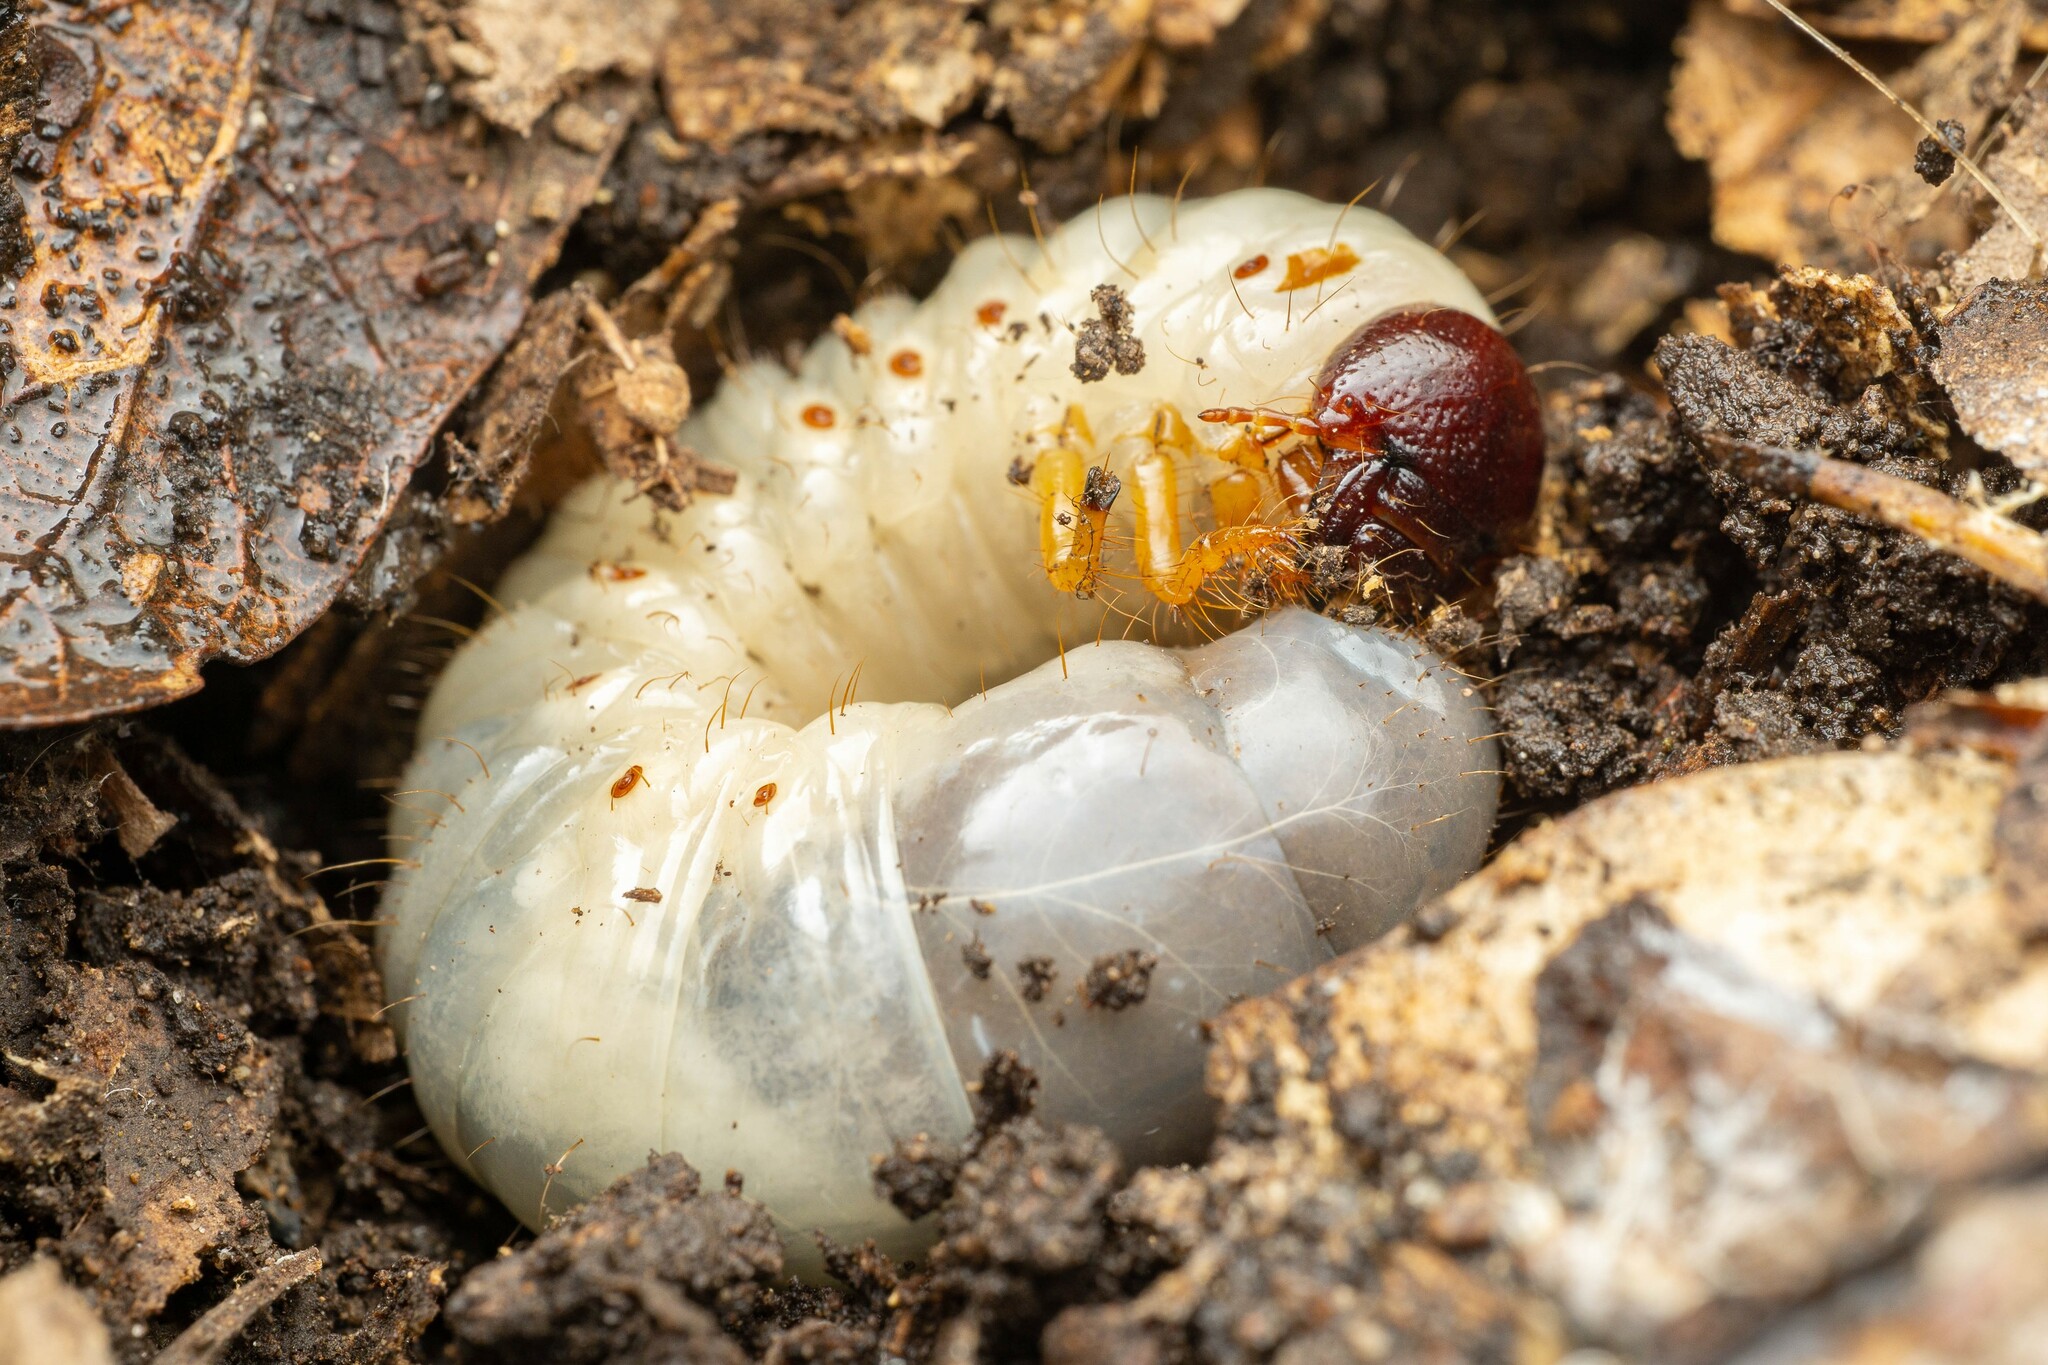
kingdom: Animalia
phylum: Arthropoda
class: Insecta
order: Coleoptera
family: Scarabaeidae
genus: Dynastes
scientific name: Dynastes grantii
